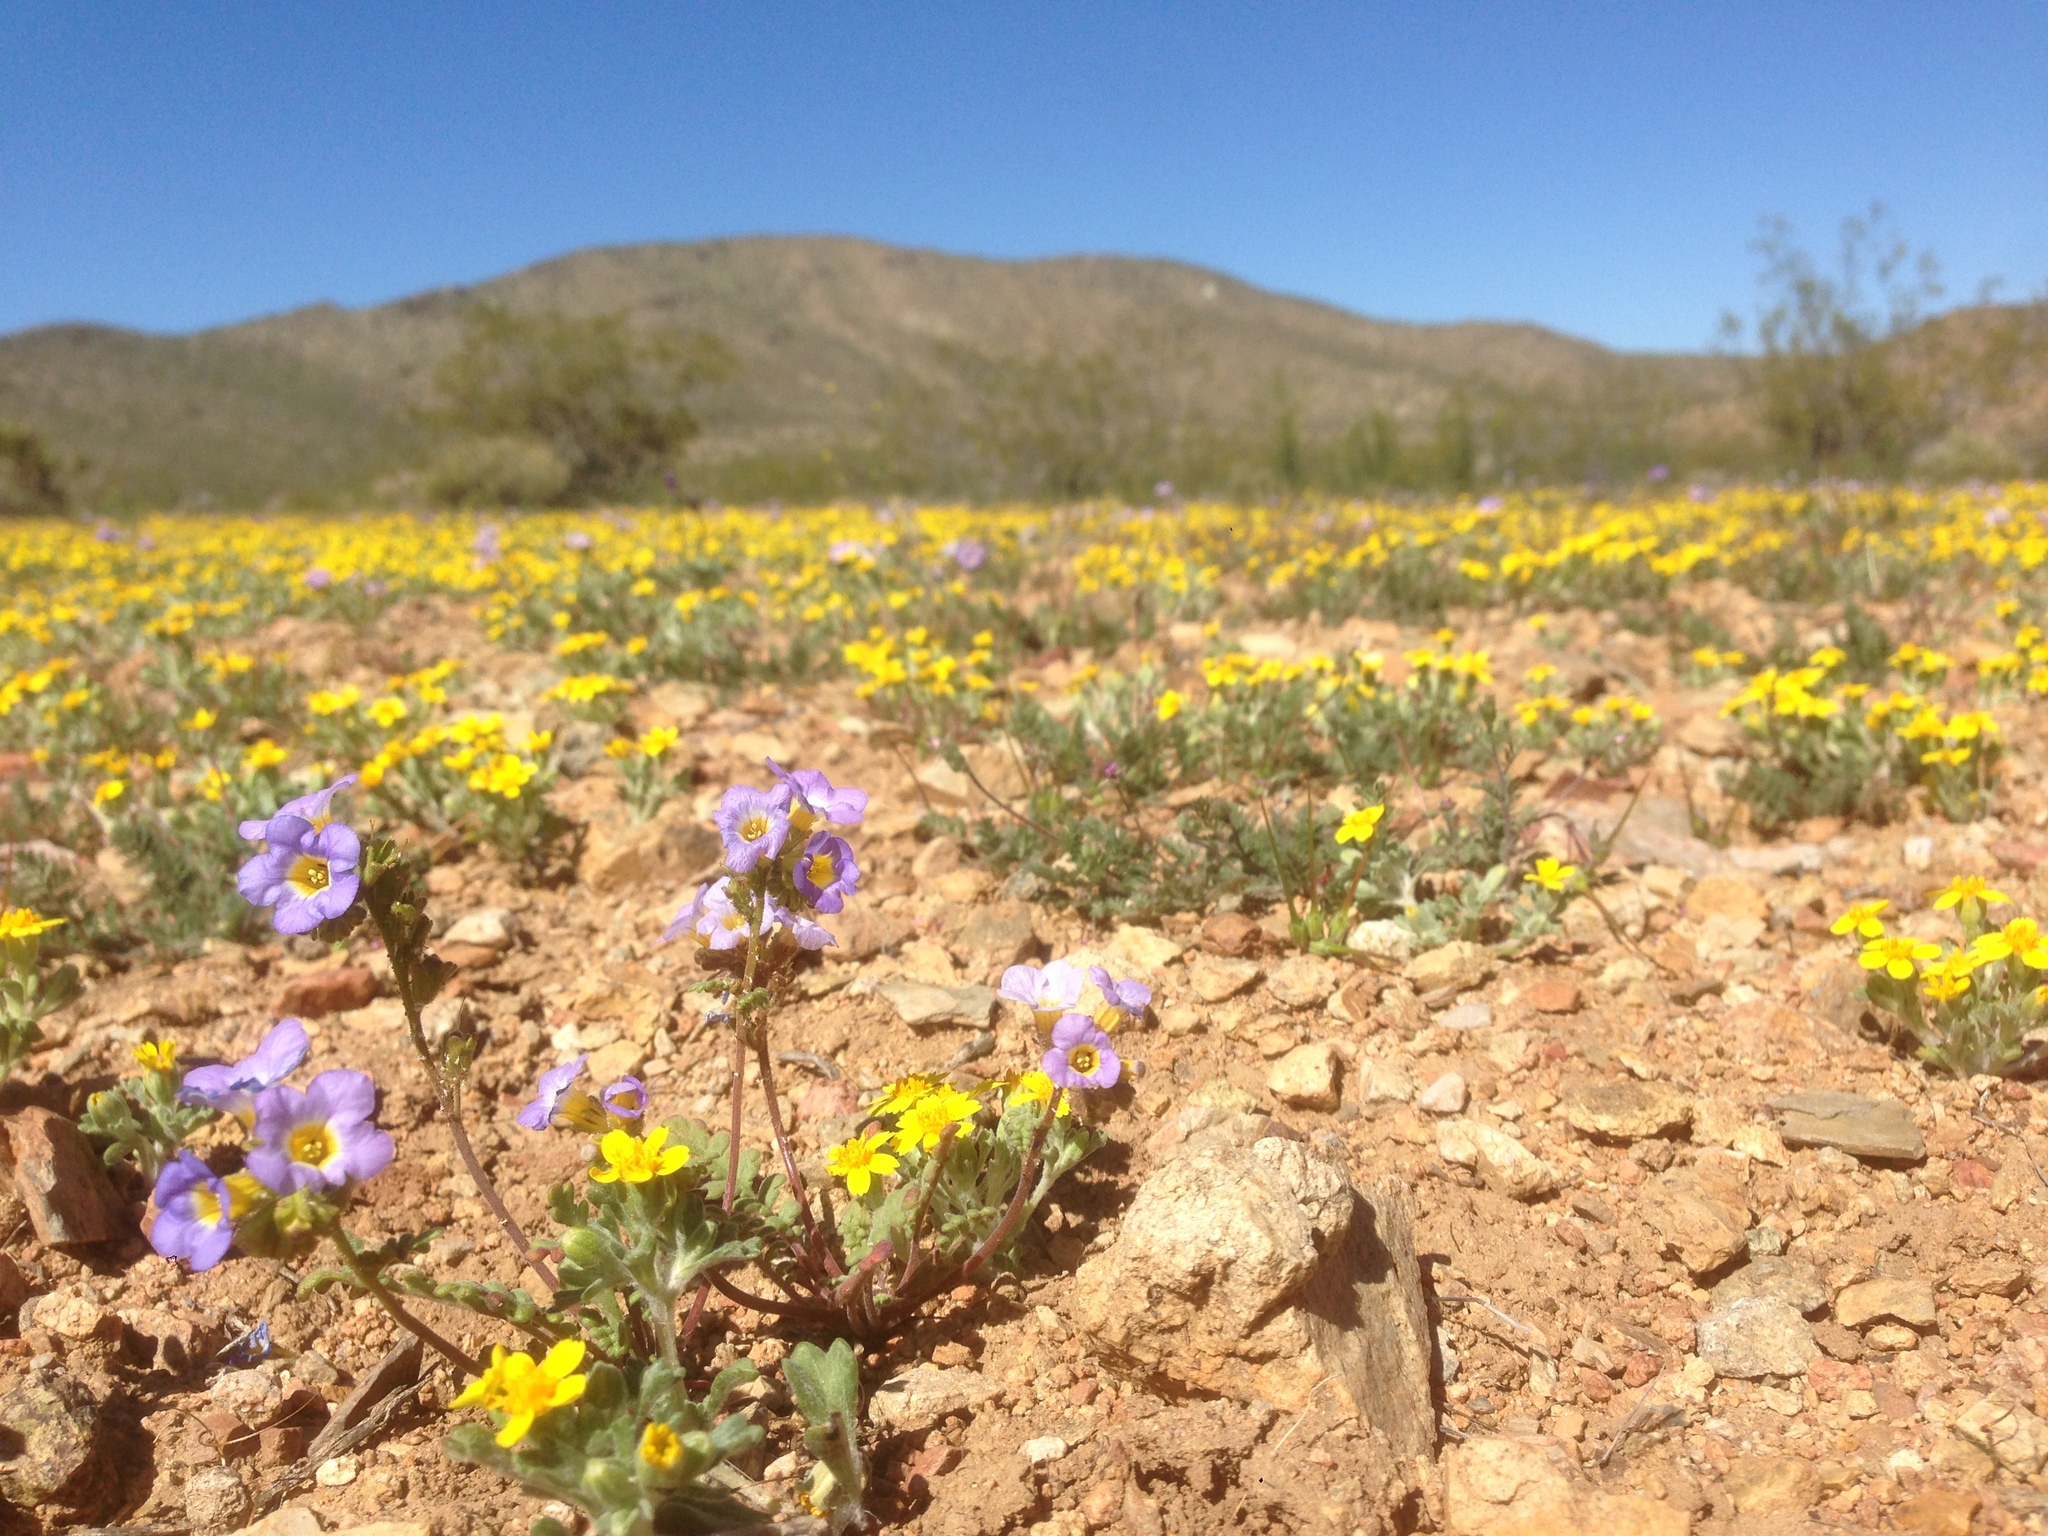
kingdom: Plantae
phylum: Tracheophyta
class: Magnoliopsida
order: Asterales
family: Asteraceae
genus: Eriophyllum
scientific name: Eriophyllum wallacei
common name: Wallace's woolly daisy
